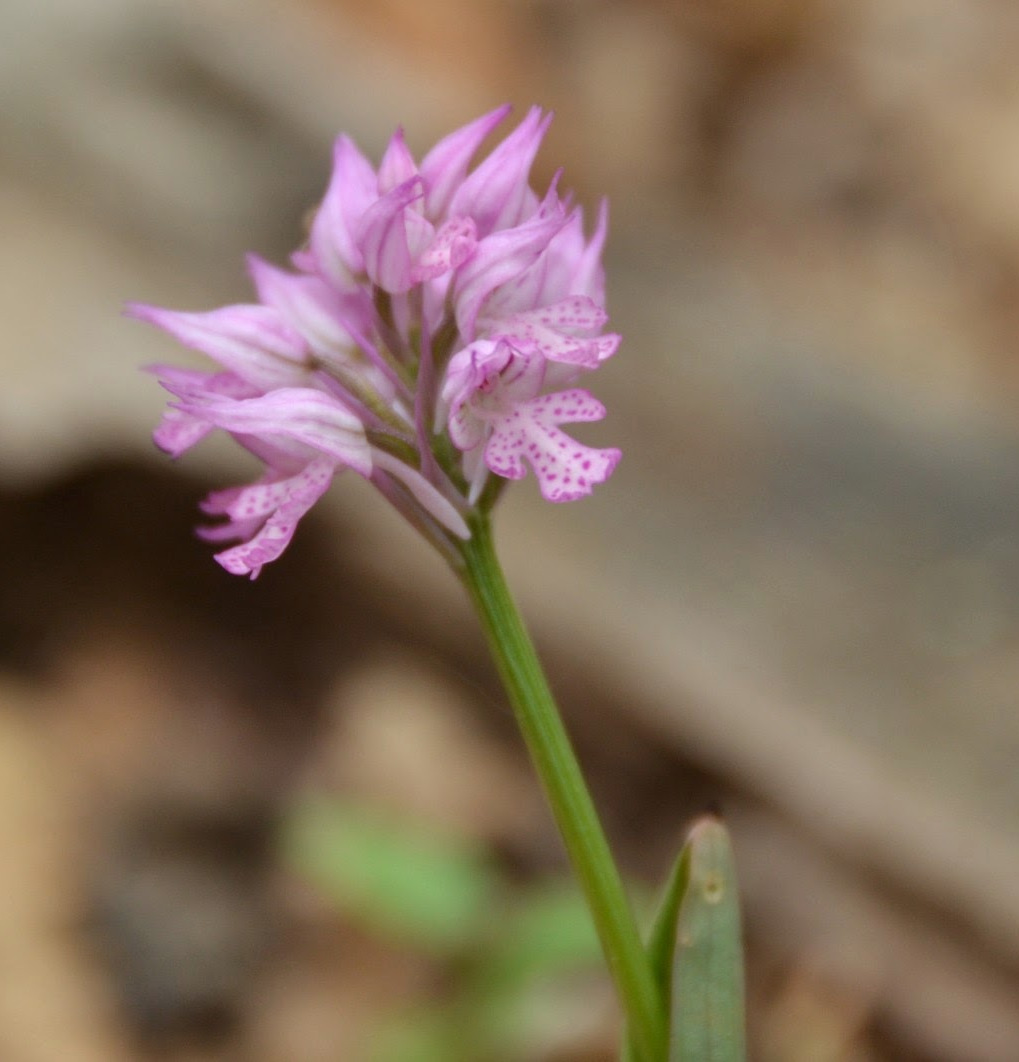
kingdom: Plantae
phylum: Tracheophyta
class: Liliopsida
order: Asparagales
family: Orchidaceae
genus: Neotinea
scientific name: Neotinea tridentata
